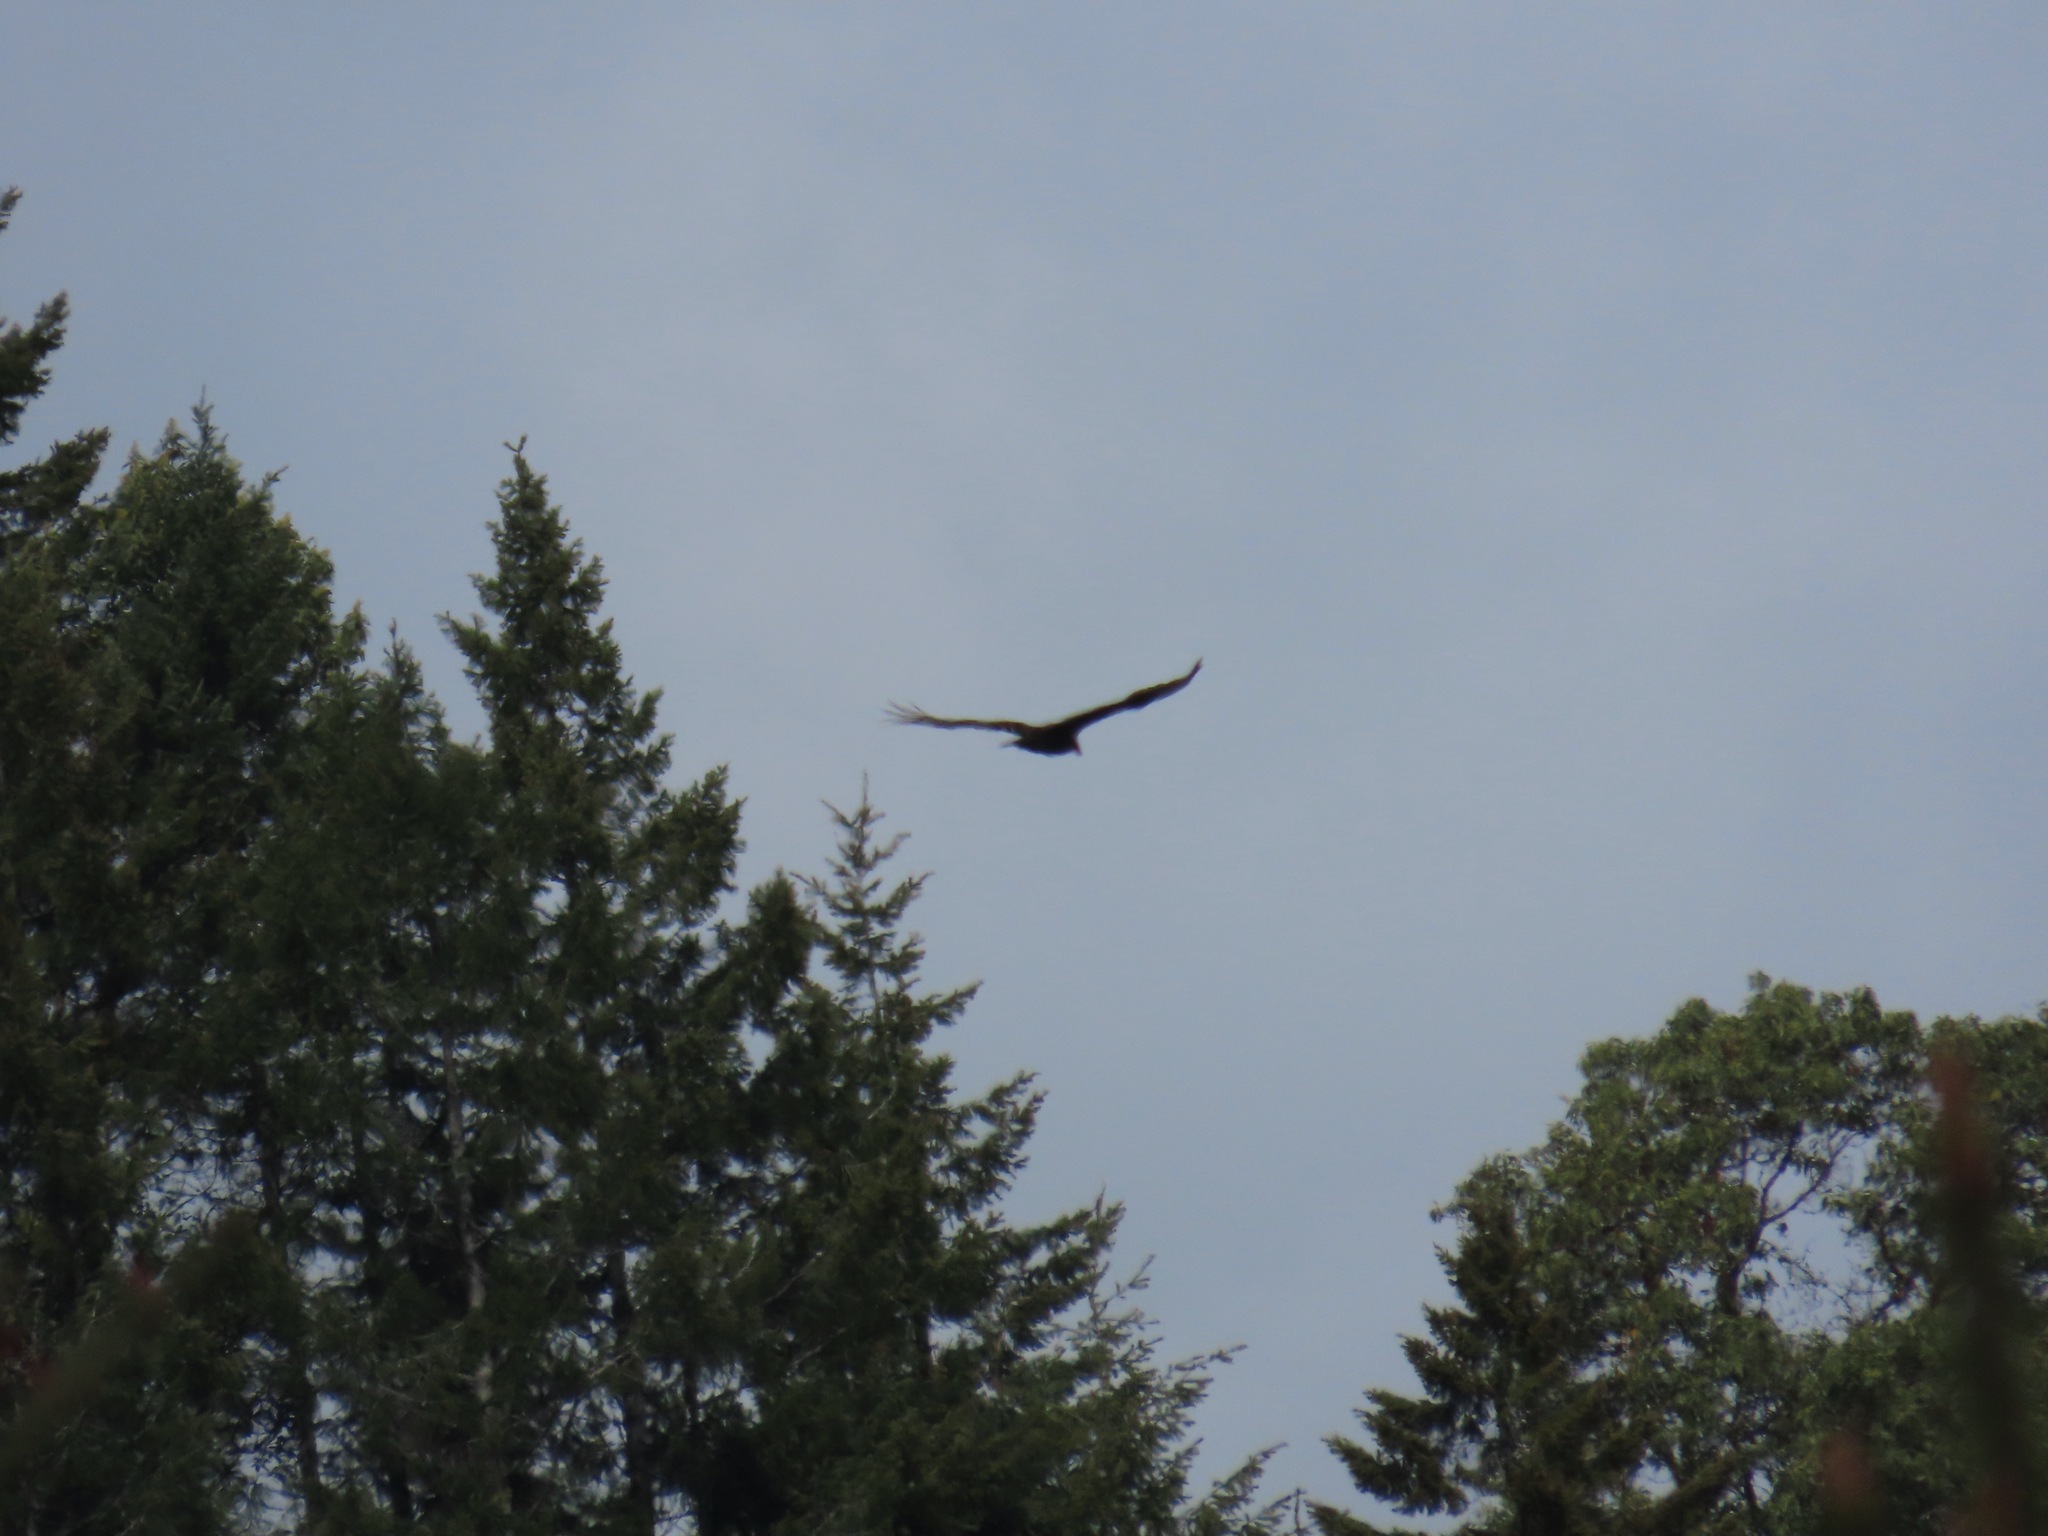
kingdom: Animalia
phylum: Chordata
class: Aves
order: Accipitriformes
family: Cathartidae
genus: Cathartes
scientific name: Cathartes aura
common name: Turkey vulture
